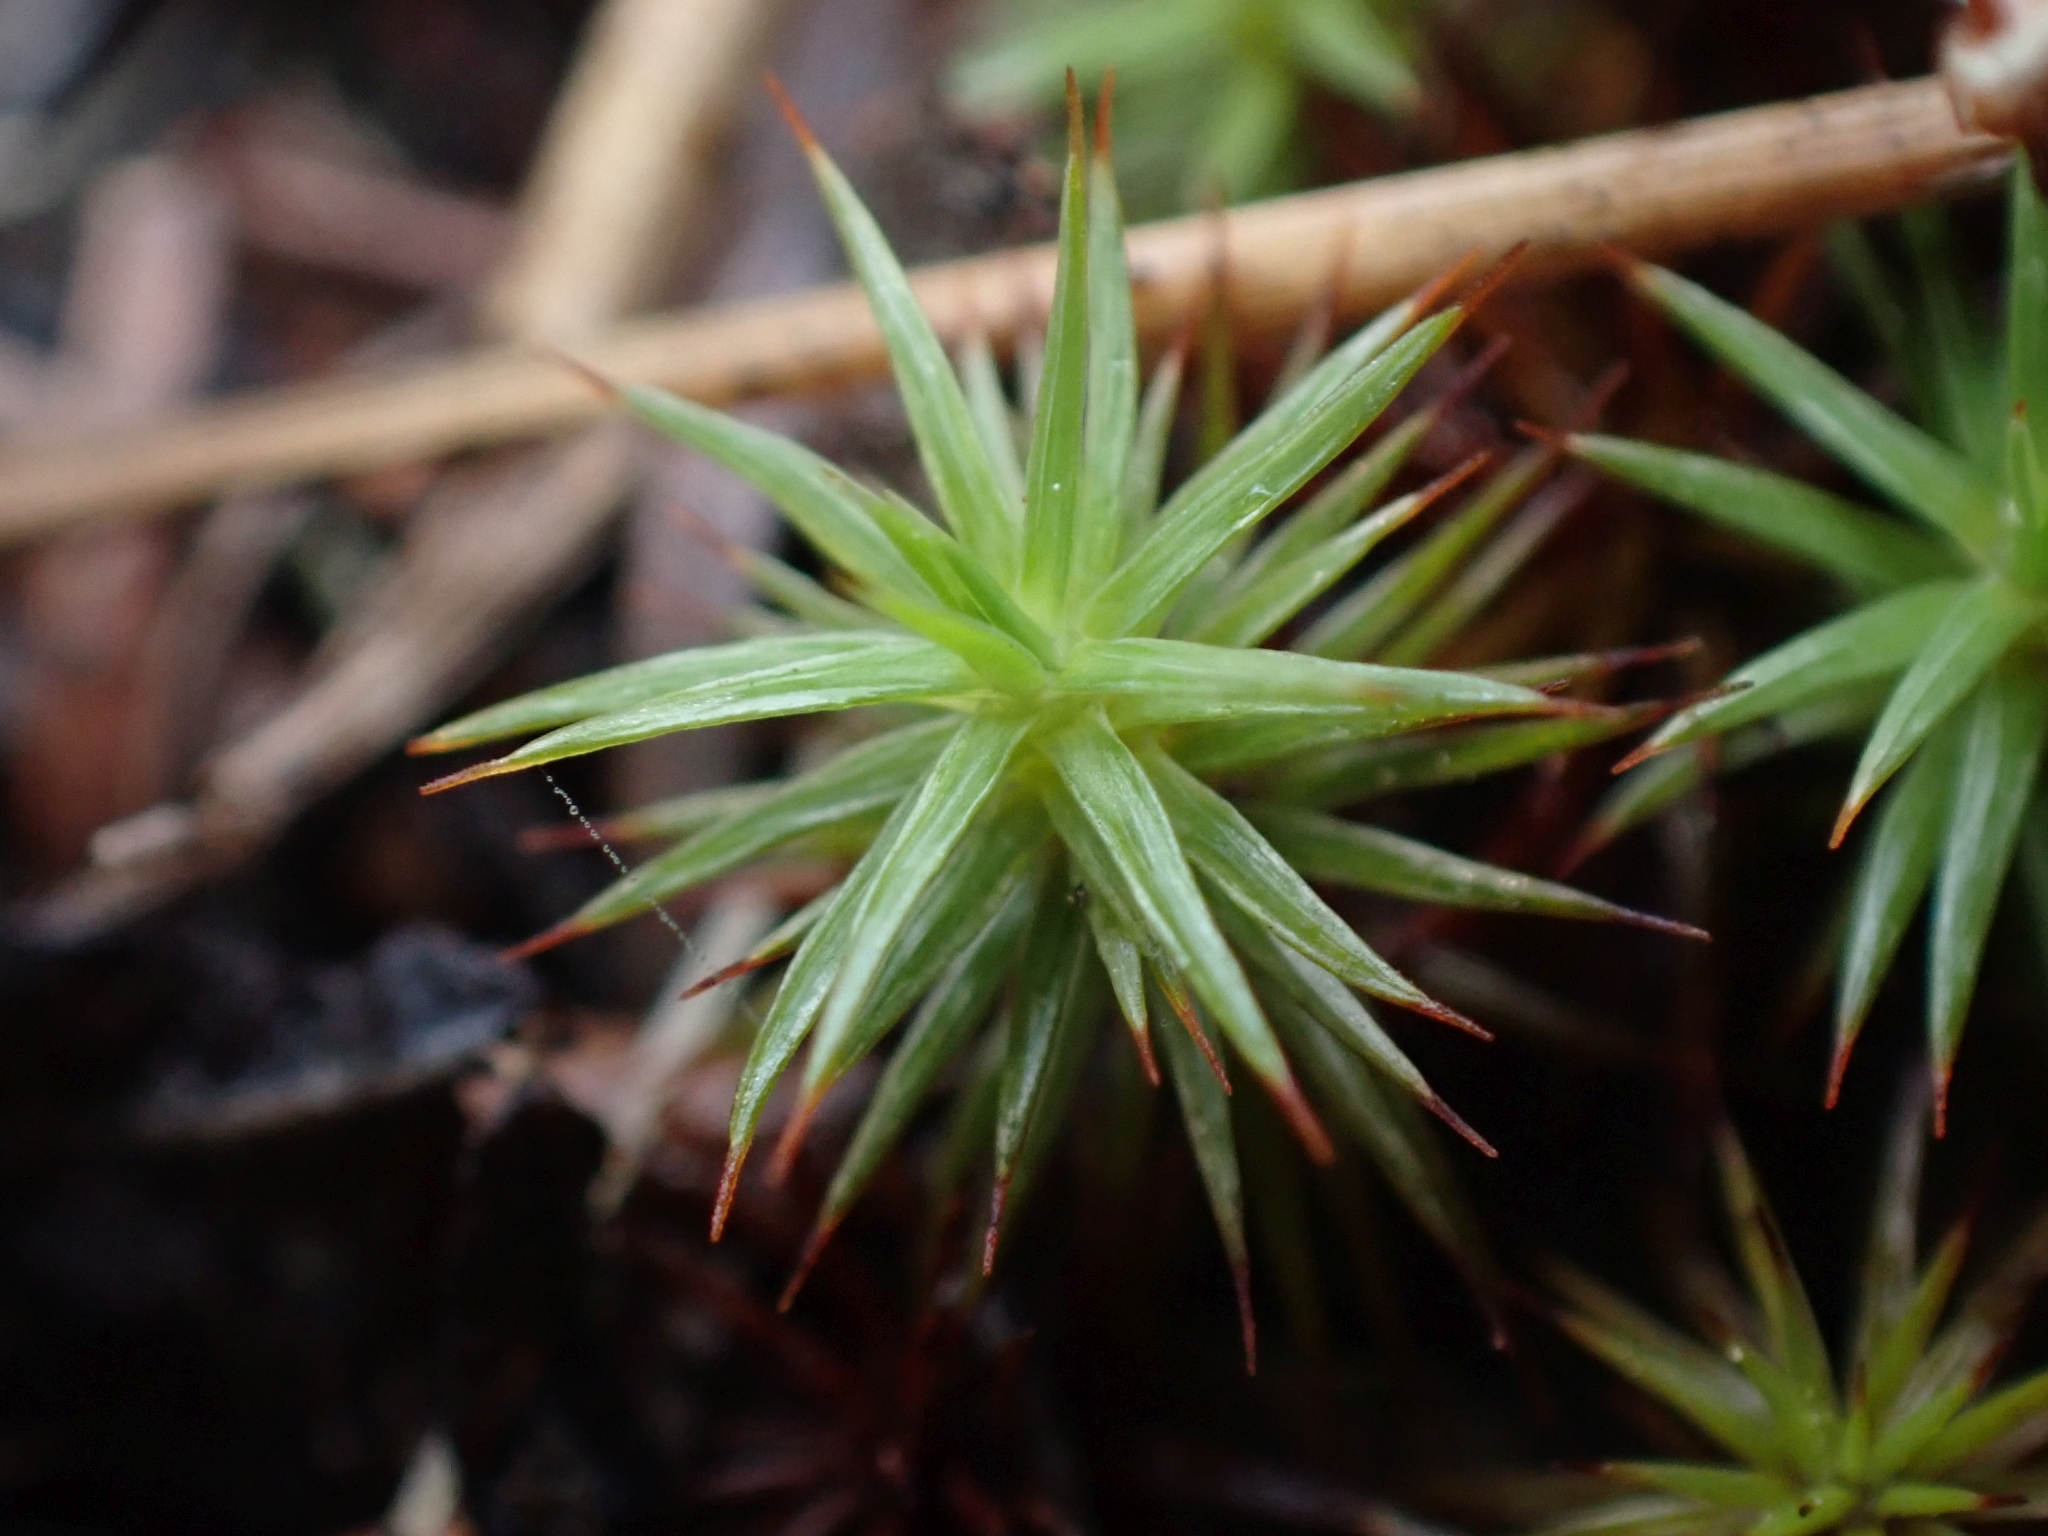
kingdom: Plantae
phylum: Bryophyta
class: Polytrichopsida
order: Polytrichales
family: Polytrichaceae
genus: Polytrichum
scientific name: Polytrichum juniperinum
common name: Juniper haircap moss
